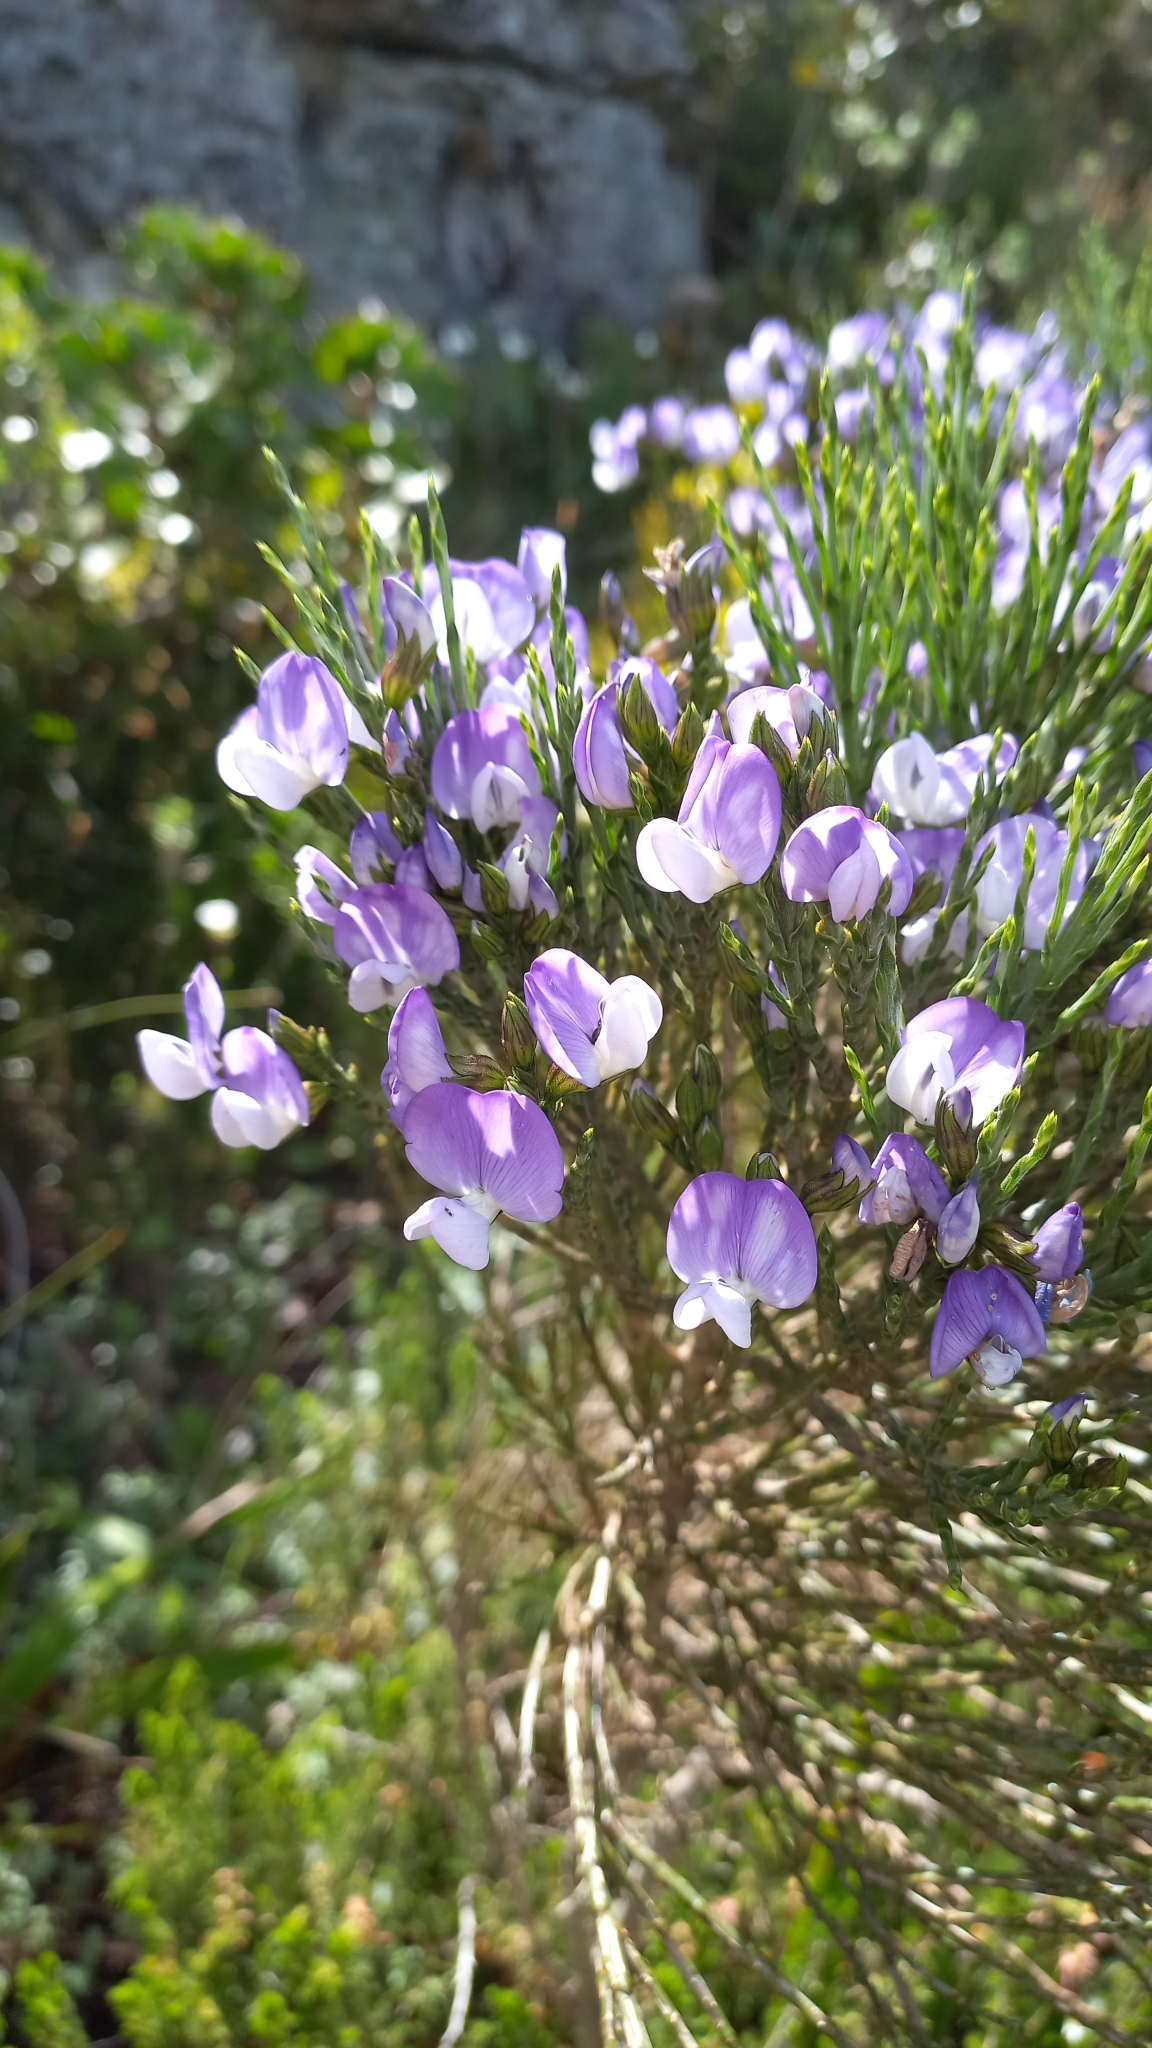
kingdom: Plantae
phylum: Tracheophyta
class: Magnoliopsida
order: Fabales
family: Fabaceae
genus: Psoralea
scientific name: Psoralea pinnata
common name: African scurfpea
